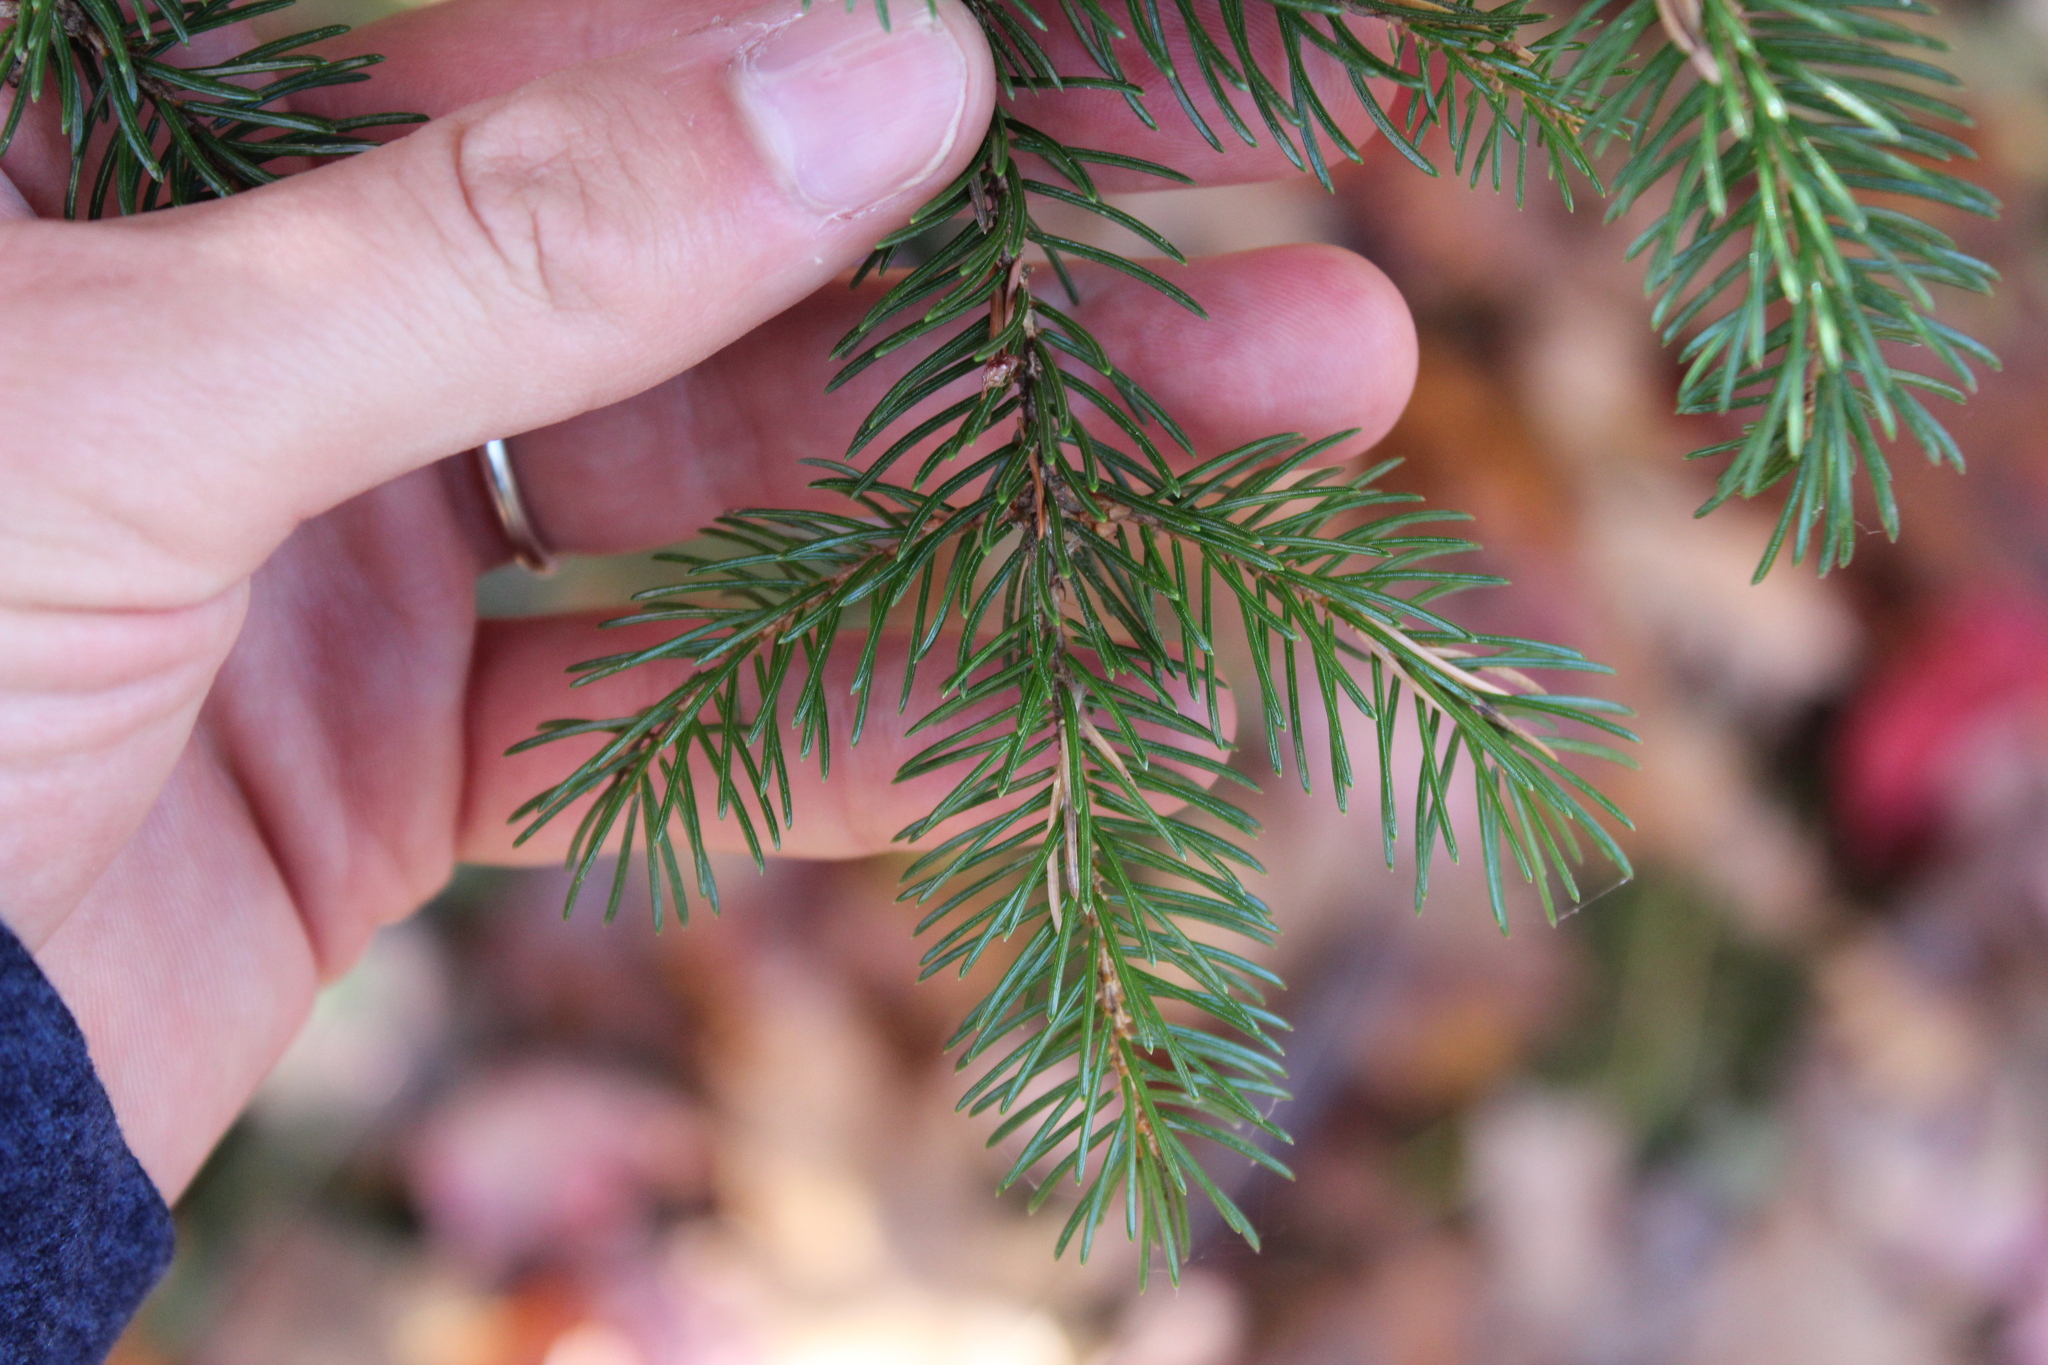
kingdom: Plantae
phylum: Tracheophyta
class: Pinopsida
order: Pinales
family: Pinaceae
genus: Picea
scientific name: Picea rubens
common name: Red spruce
